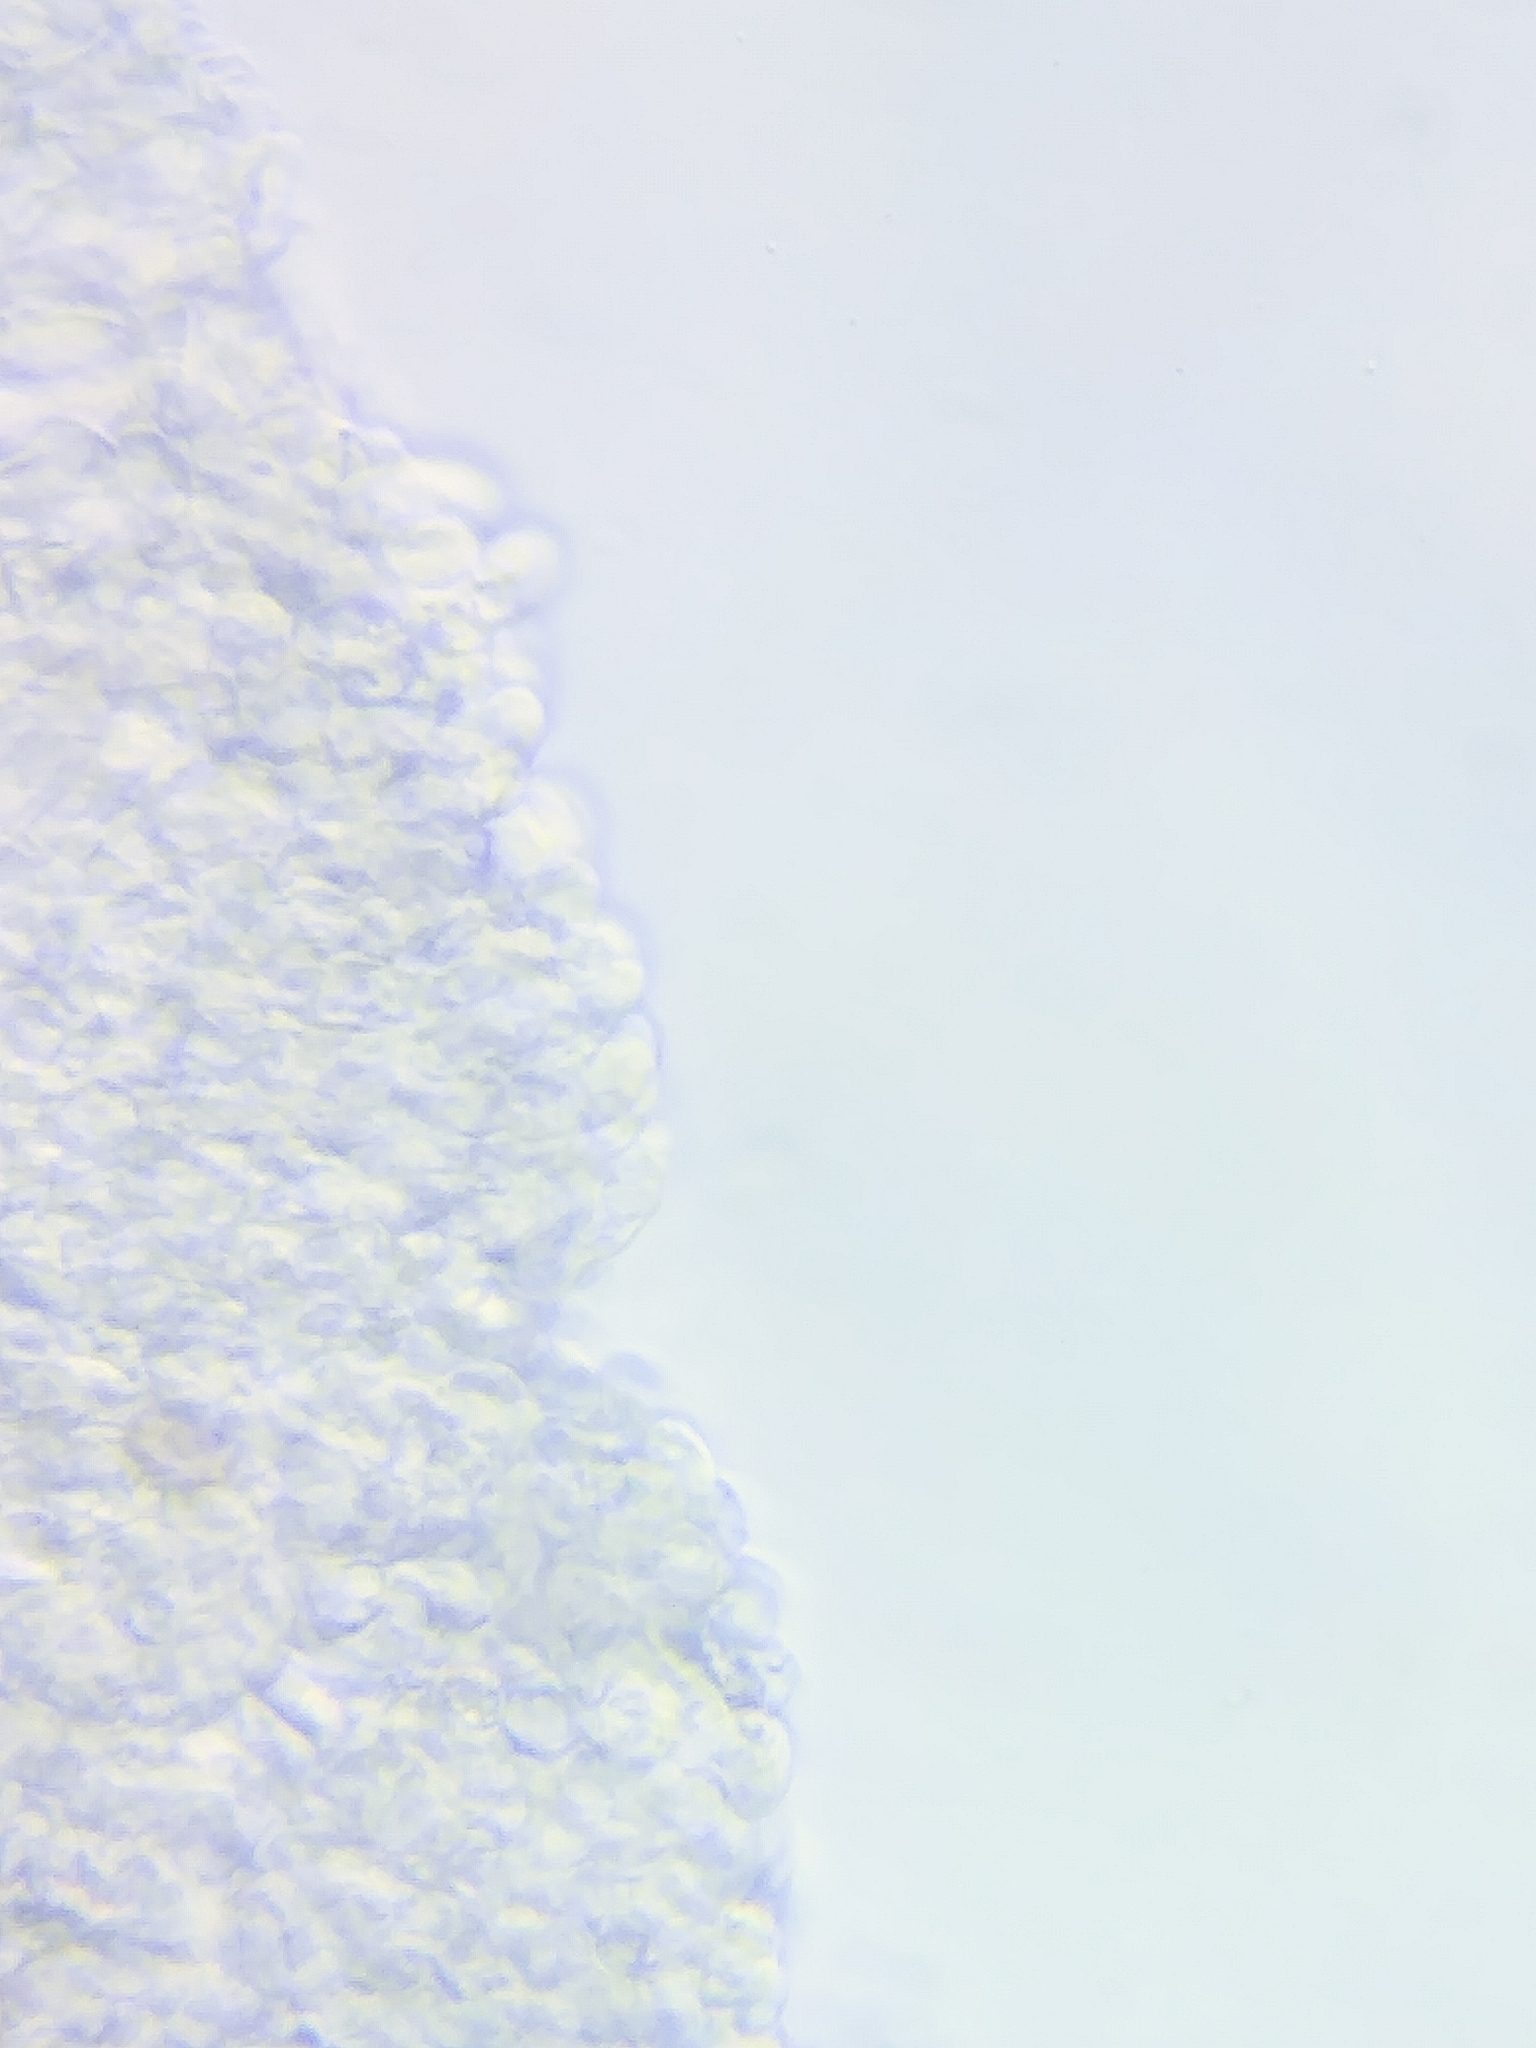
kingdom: Fungi
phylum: Basidiomycota
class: Agaricomycetes
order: Agaricales
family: Inocybaceae
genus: Inocybe
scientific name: Inocybe occulta
